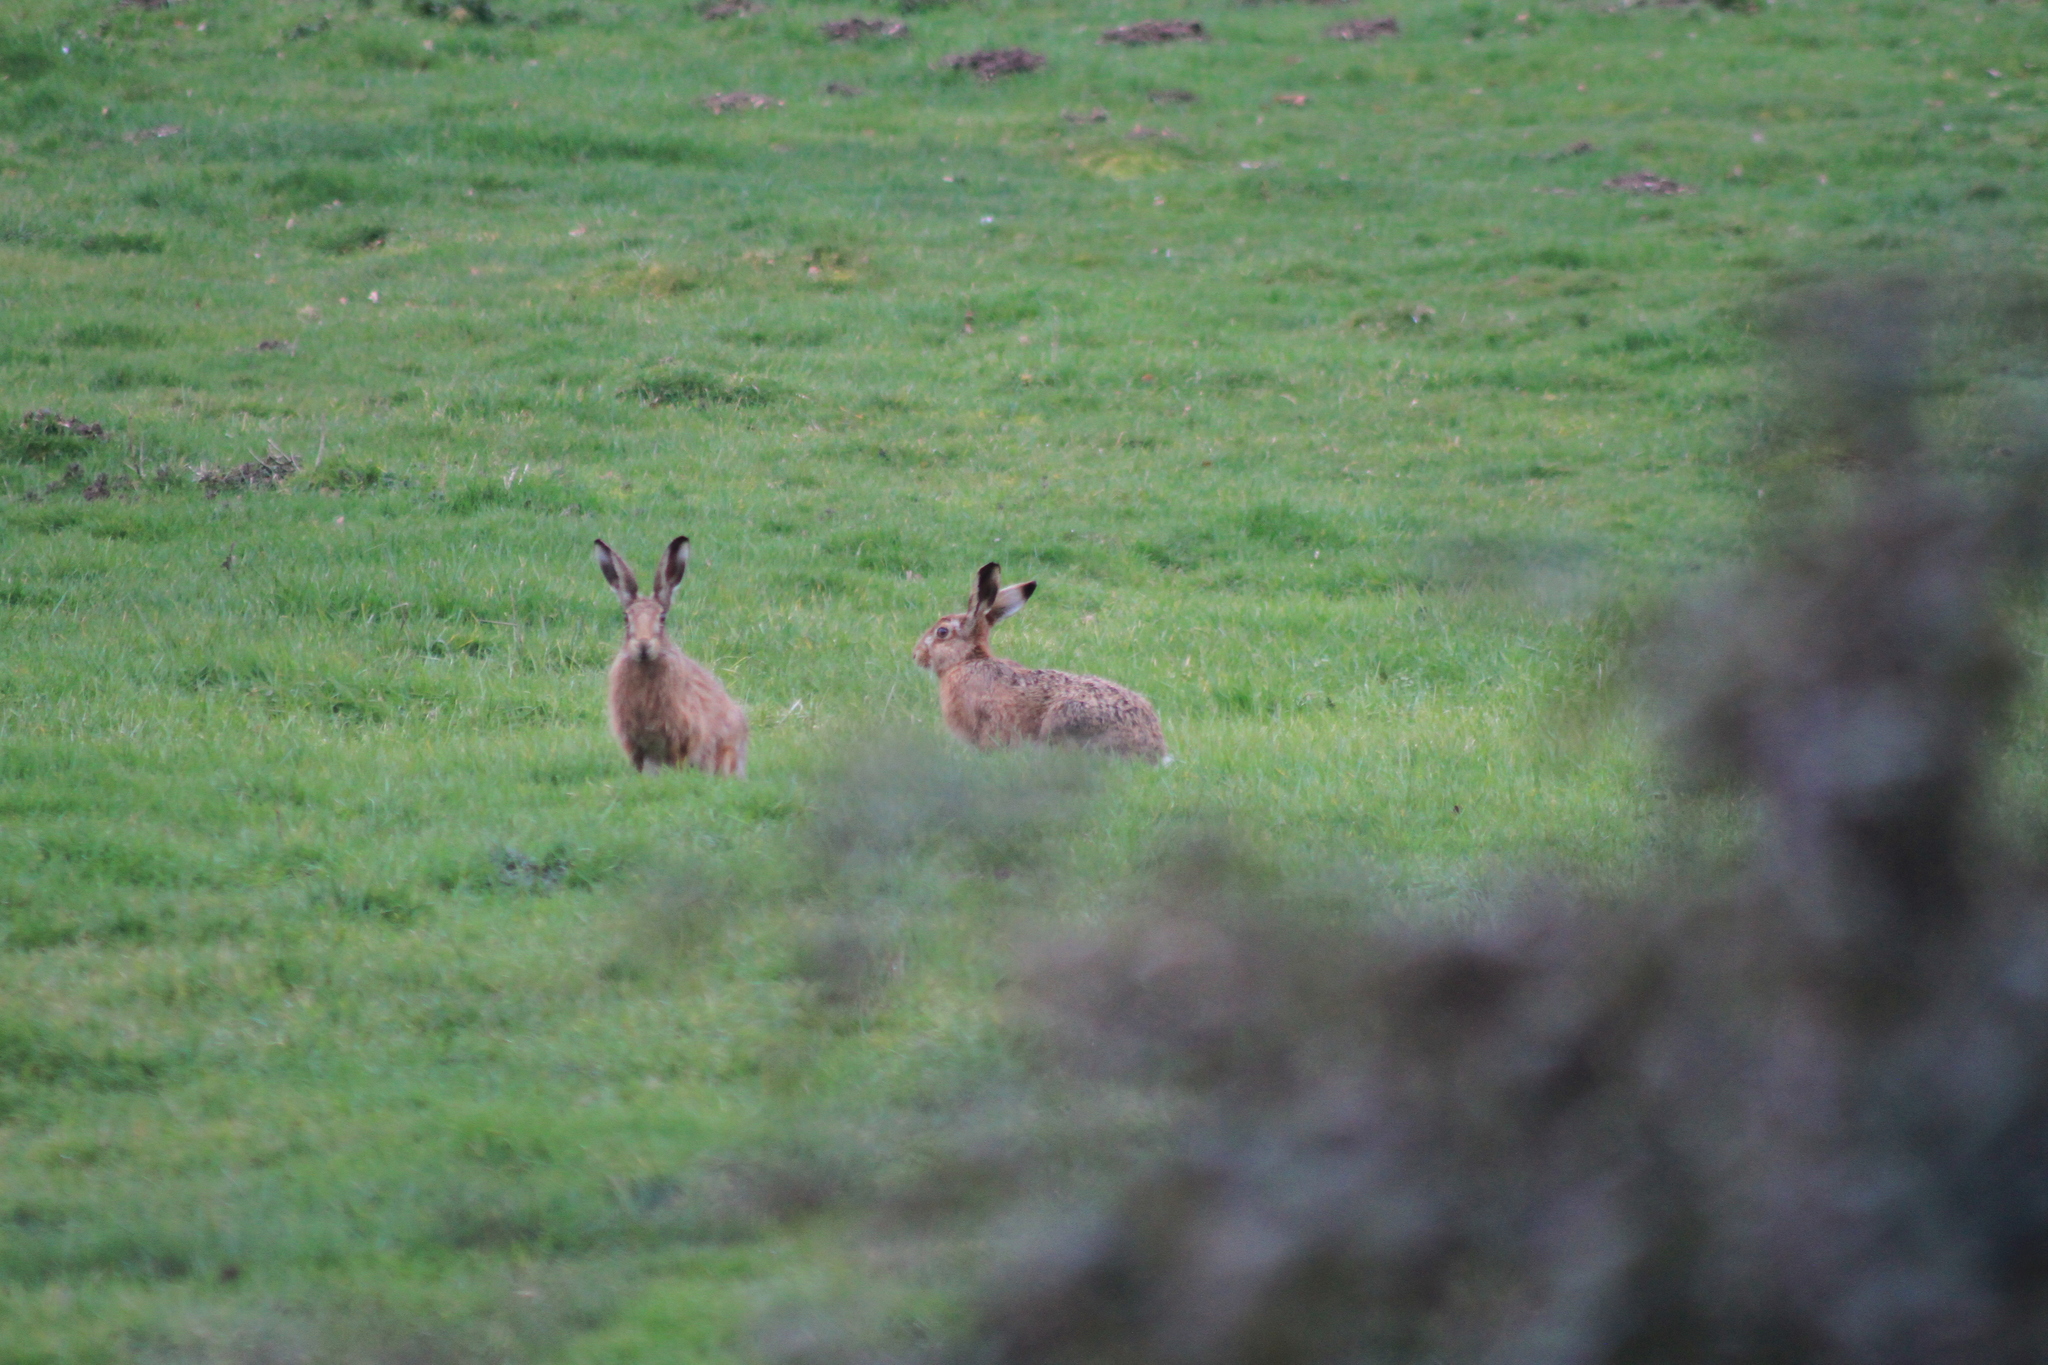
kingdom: Animalia
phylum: Chordata
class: Mammalia
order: Lagomorpha
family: Leporidae
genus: Lepus
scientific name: Lepus europaeus
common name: European hare
